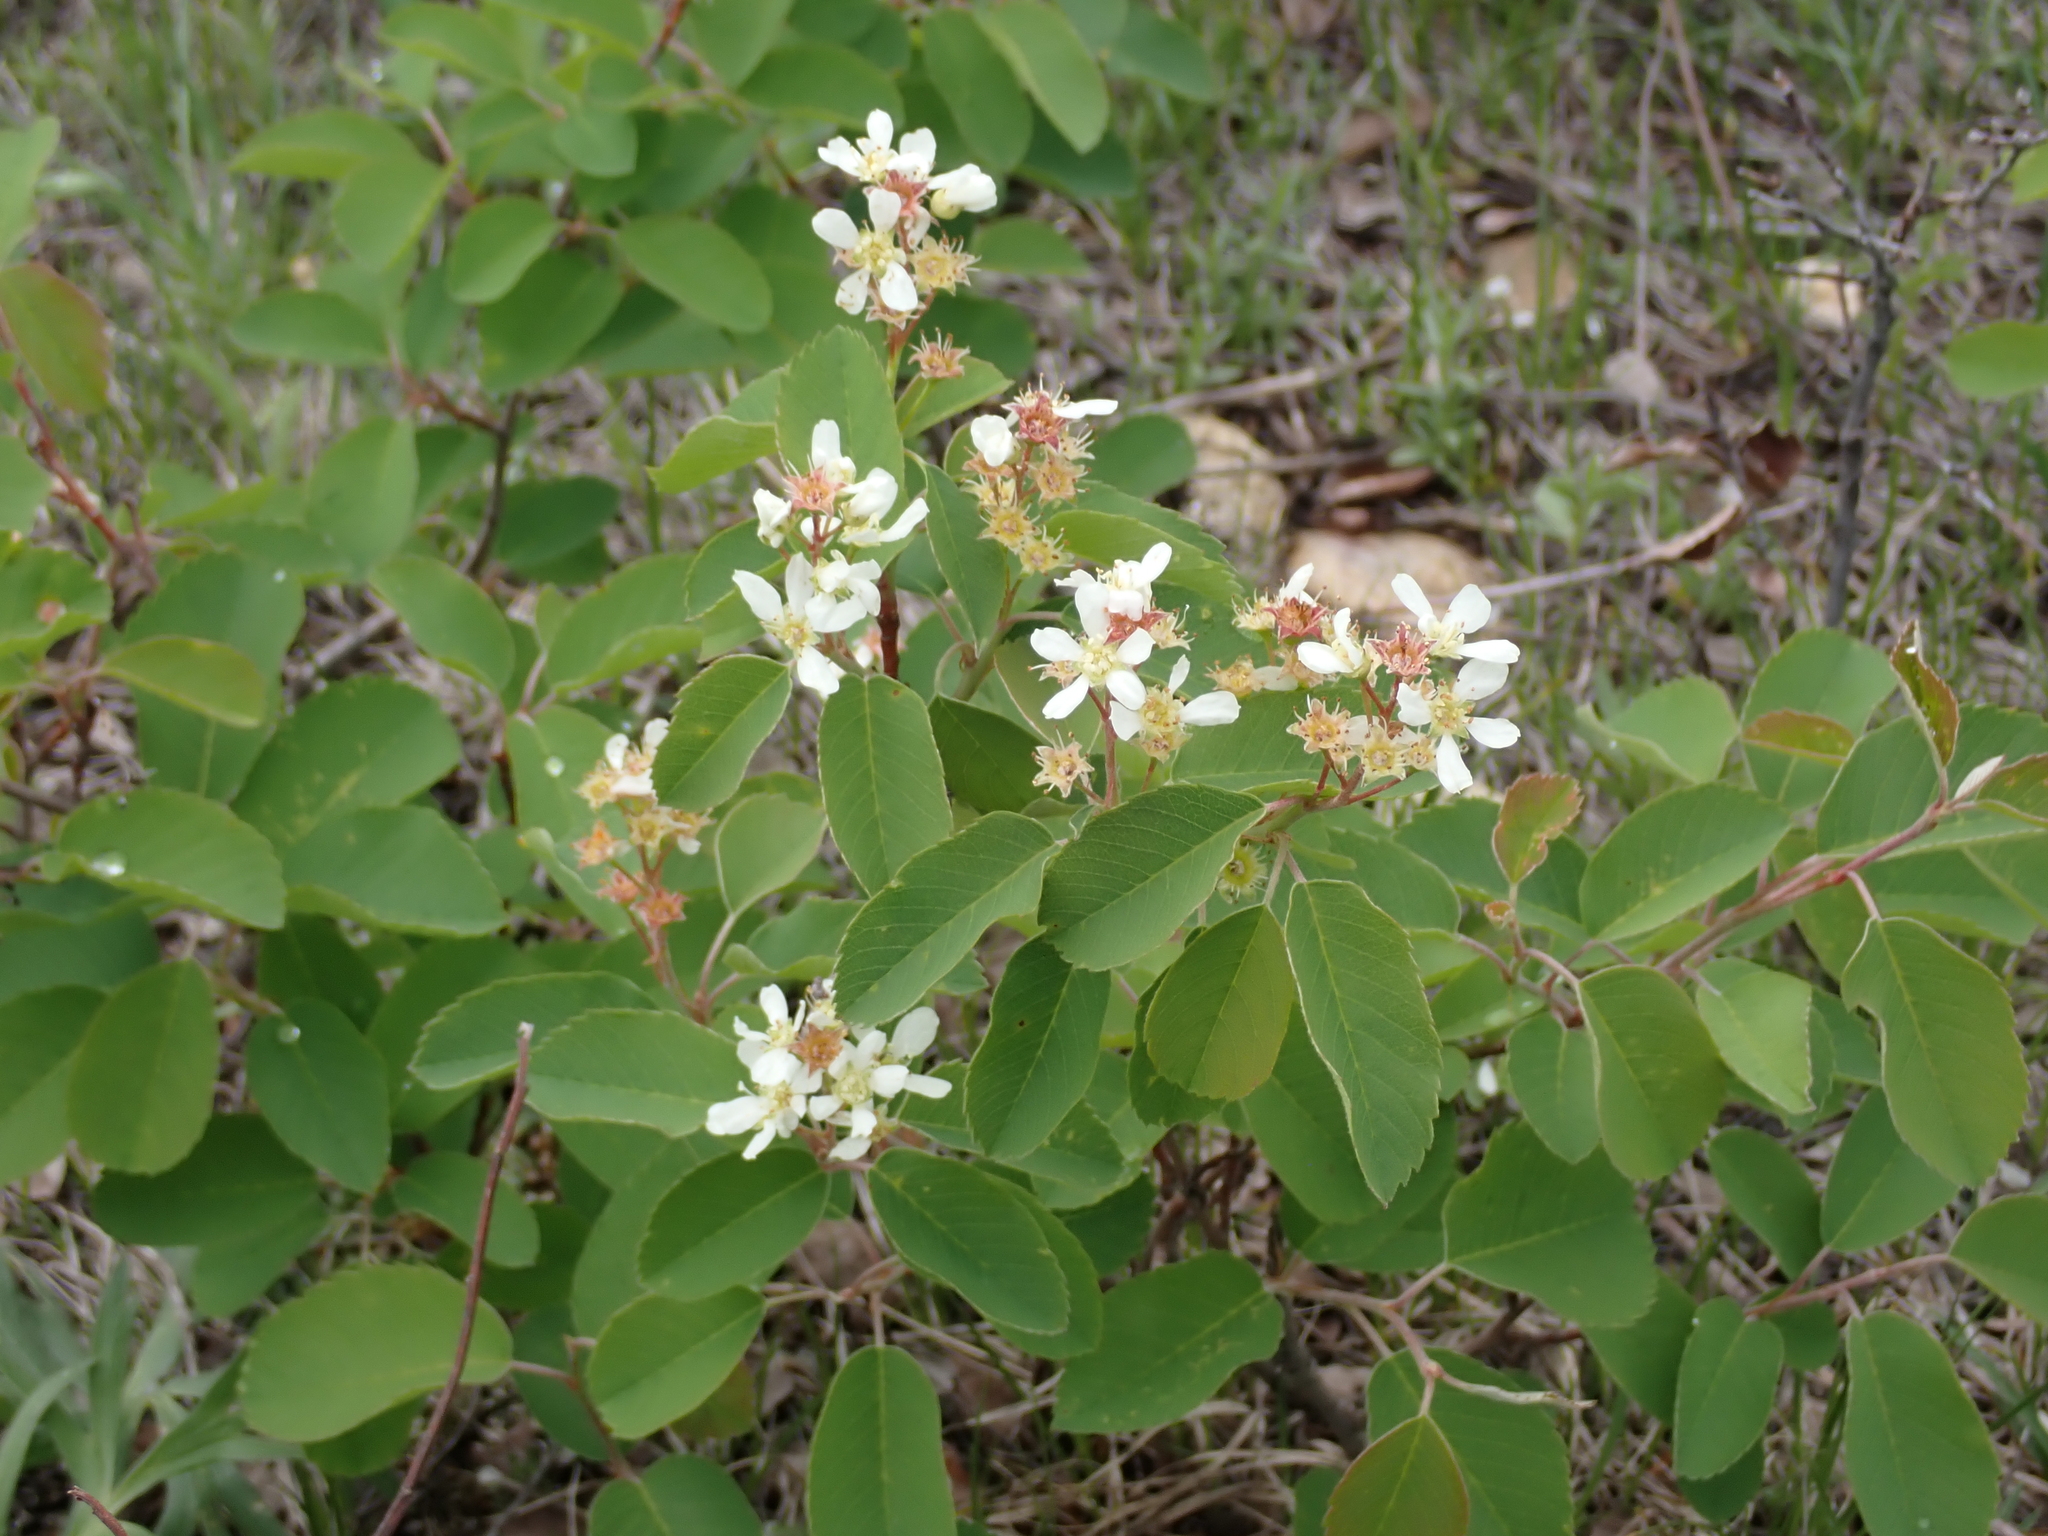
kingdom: Plantae
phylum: Tracheophyta
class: Magnoliopsida
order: Rosales
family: Rosaceae
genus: Amelanchier
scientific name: Amelanchier alnifolia
